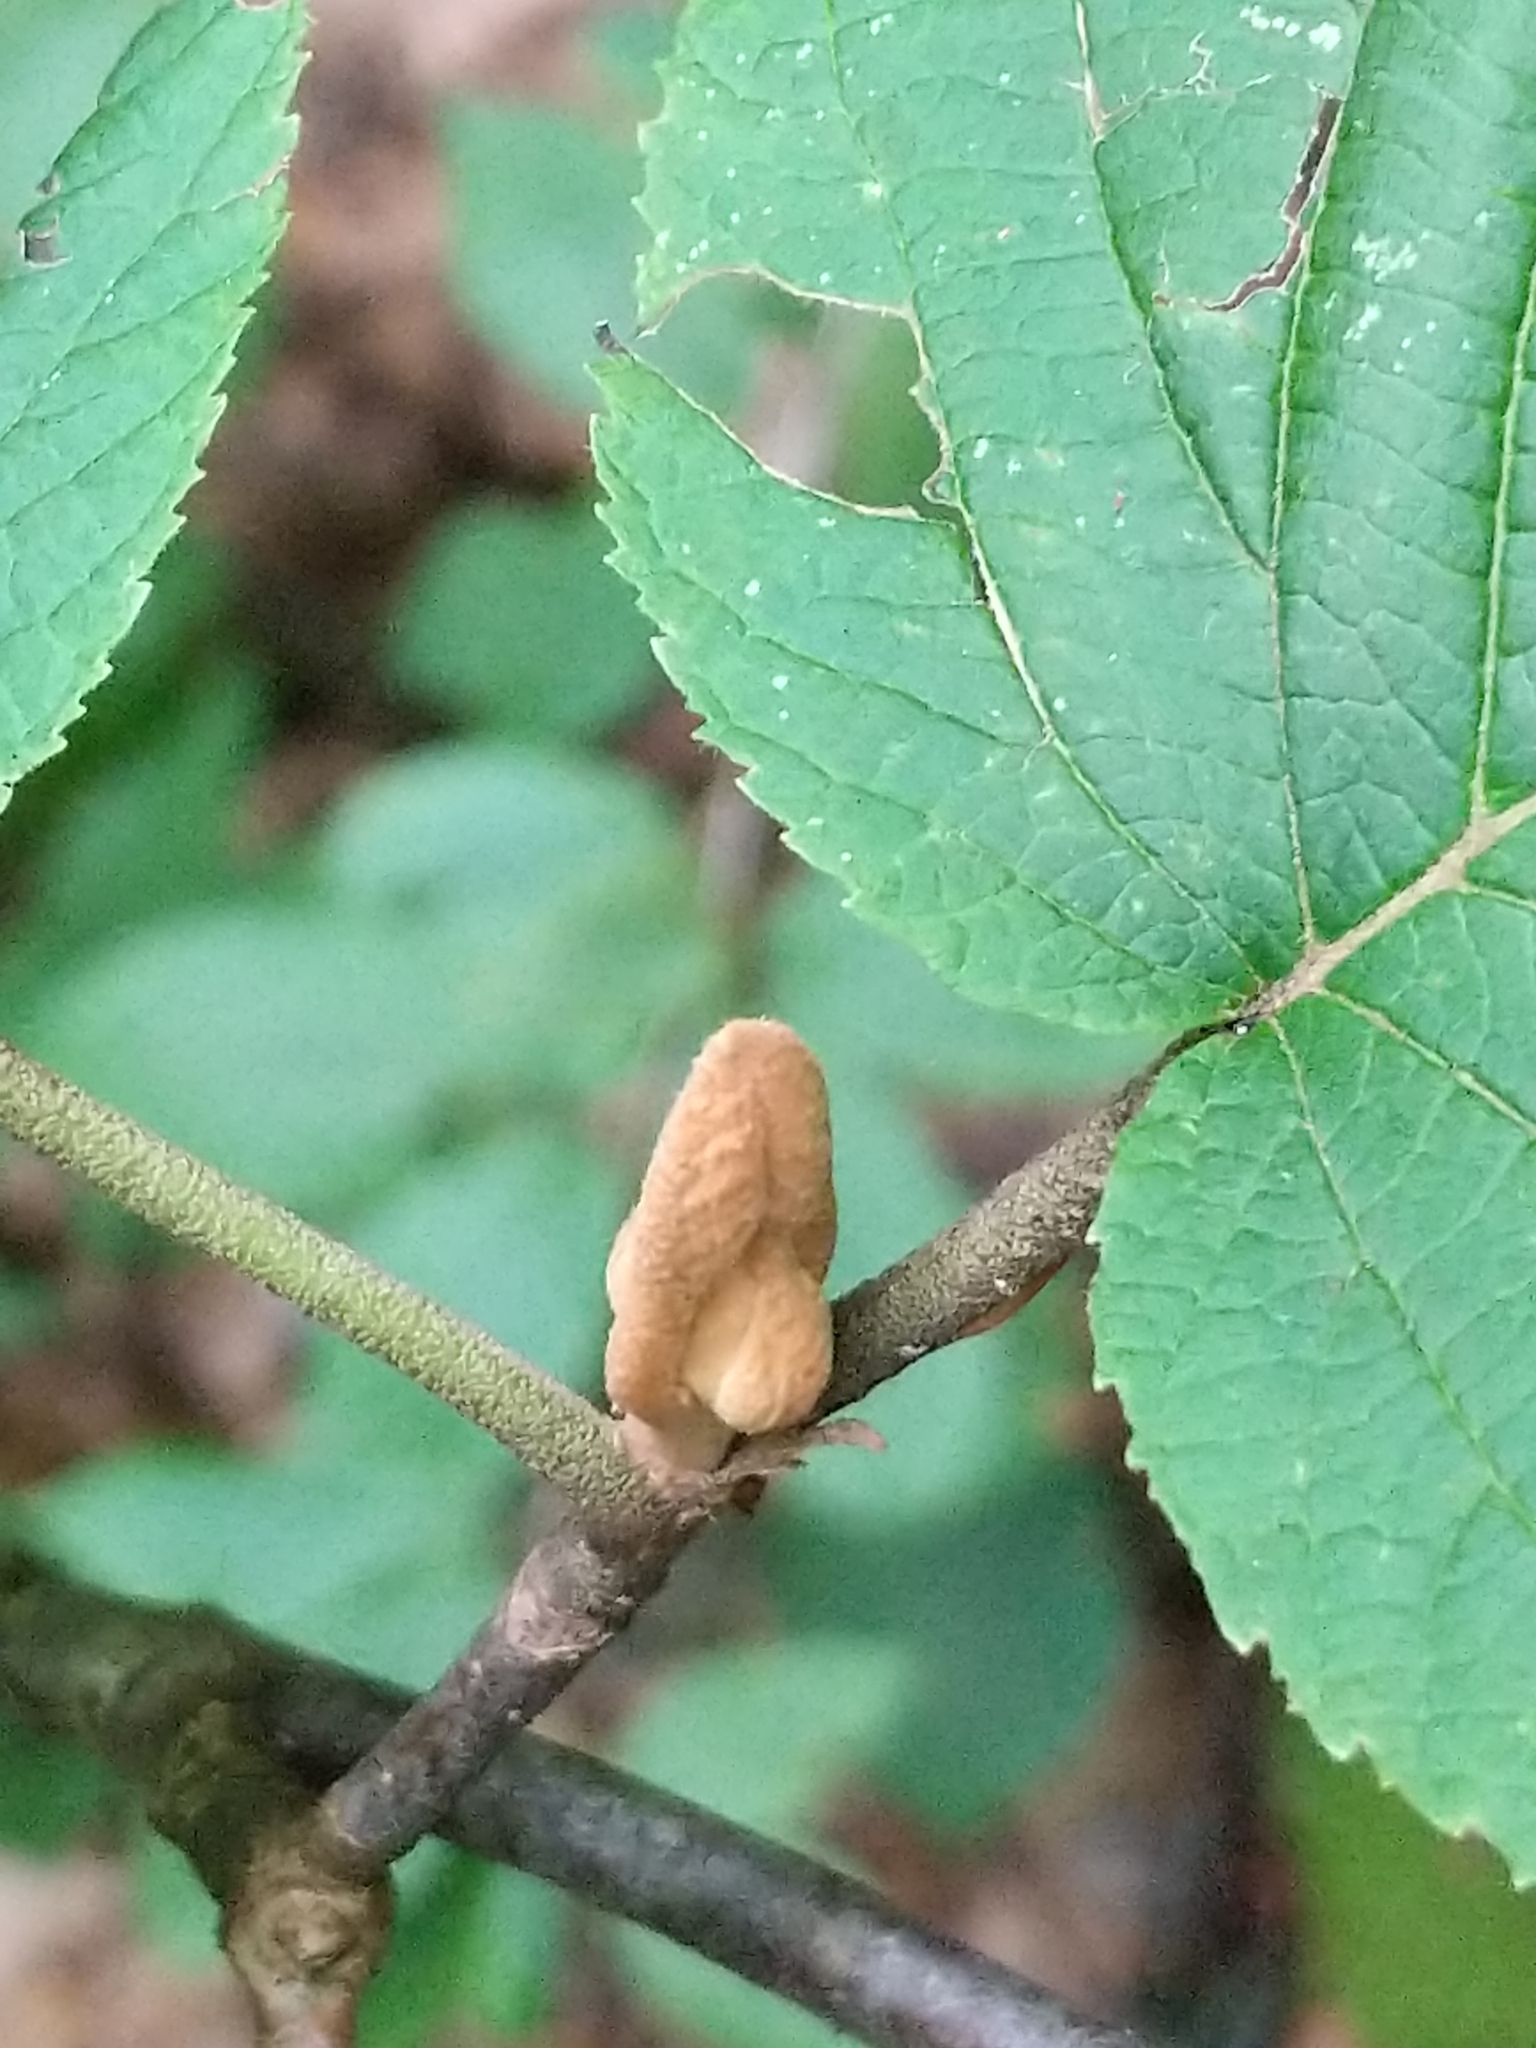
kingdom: Plantae
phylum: Tracheophyta
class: Magnoliopsida
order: Dipsacales
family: Viburnaceae
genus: Viburnum
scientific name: Viburnum lantanoides
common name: Hobblebush
